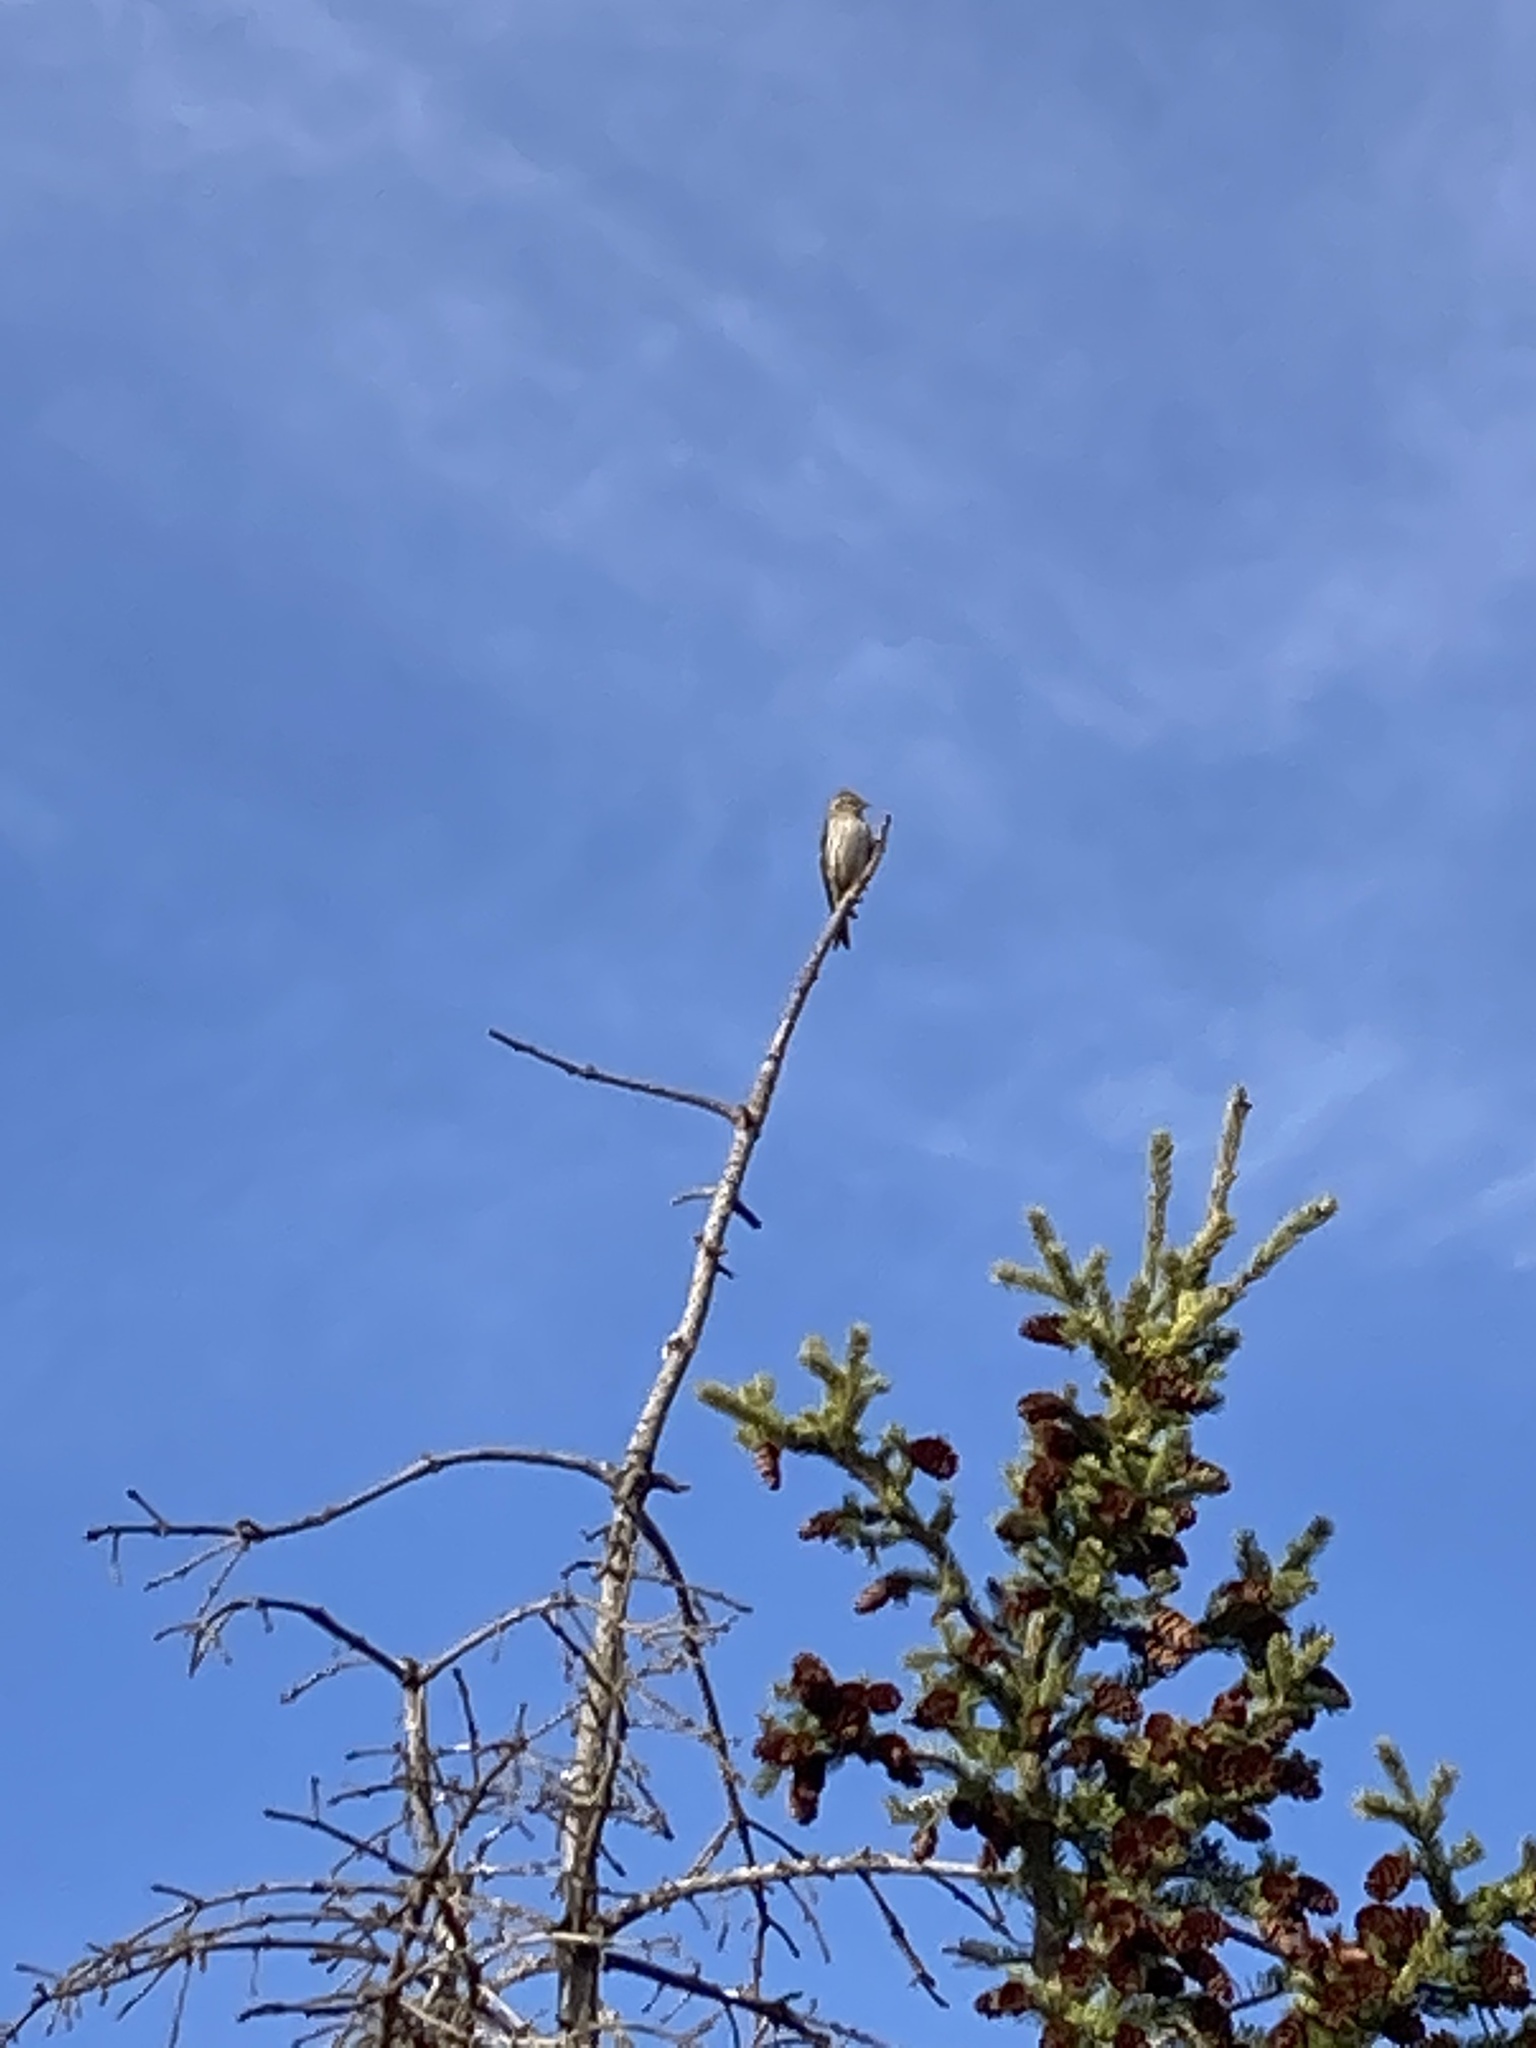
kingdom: Animalia
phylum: Chordata
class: Aves
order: Passeriformes
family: Fringillidae
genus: Spinus
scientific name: Spinus pinus
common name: Pine siskin
